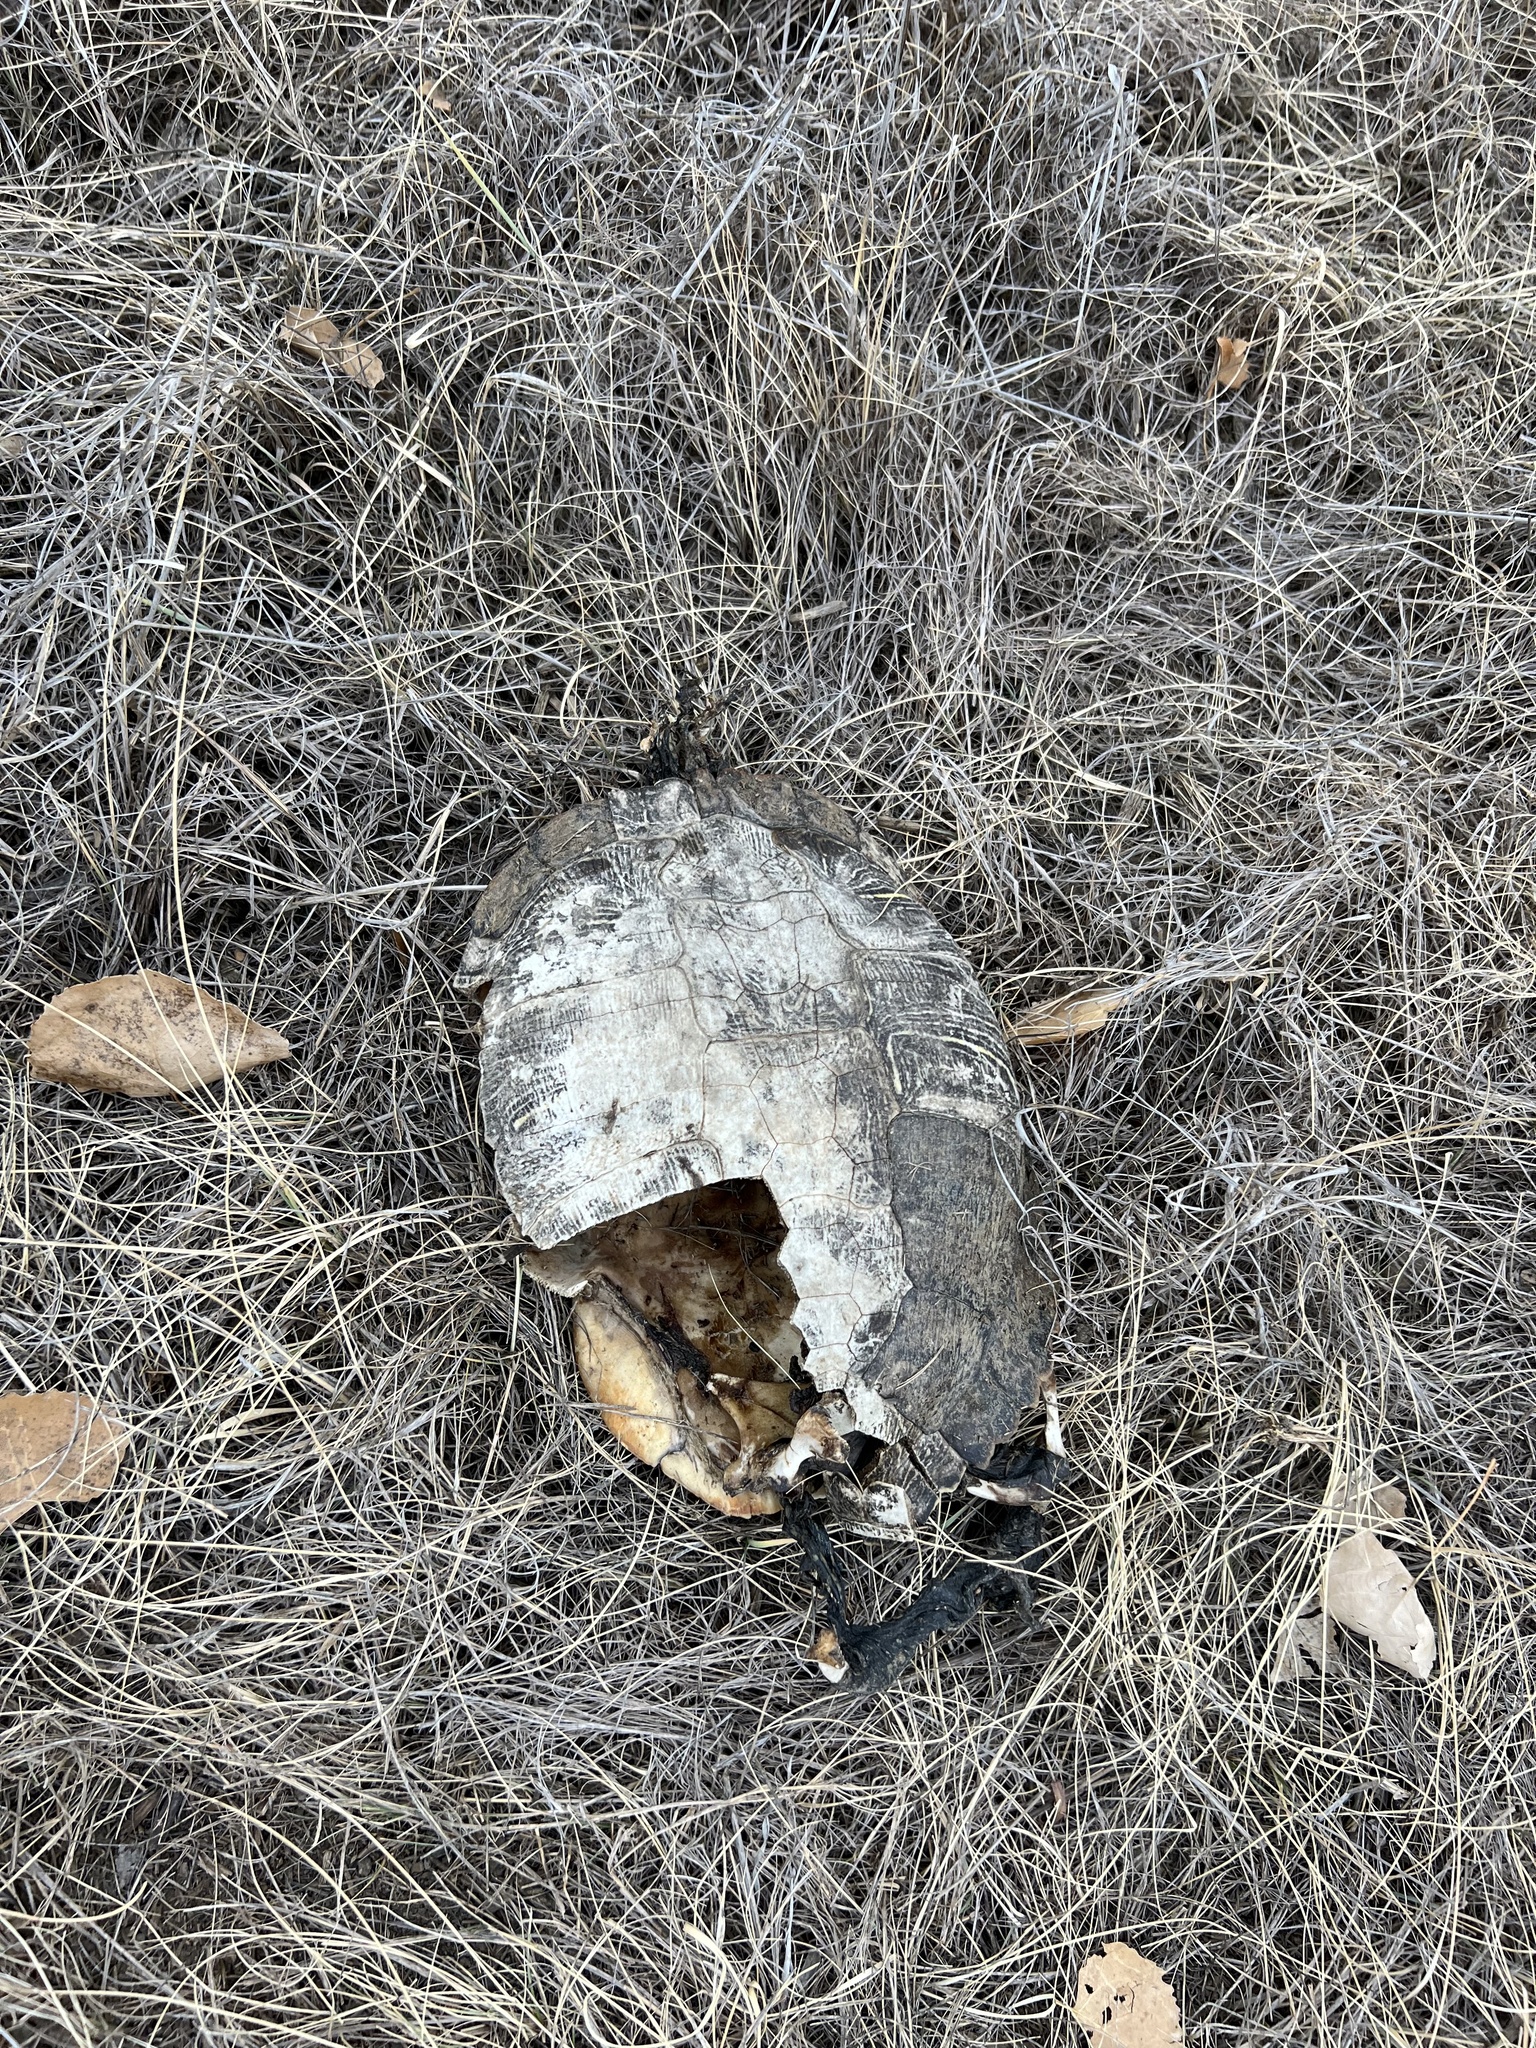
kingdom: Animalia
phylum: Chordata
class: Testudines
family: Emydidae
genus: Trachemys
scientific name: Trachemys scripta
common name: Slider
